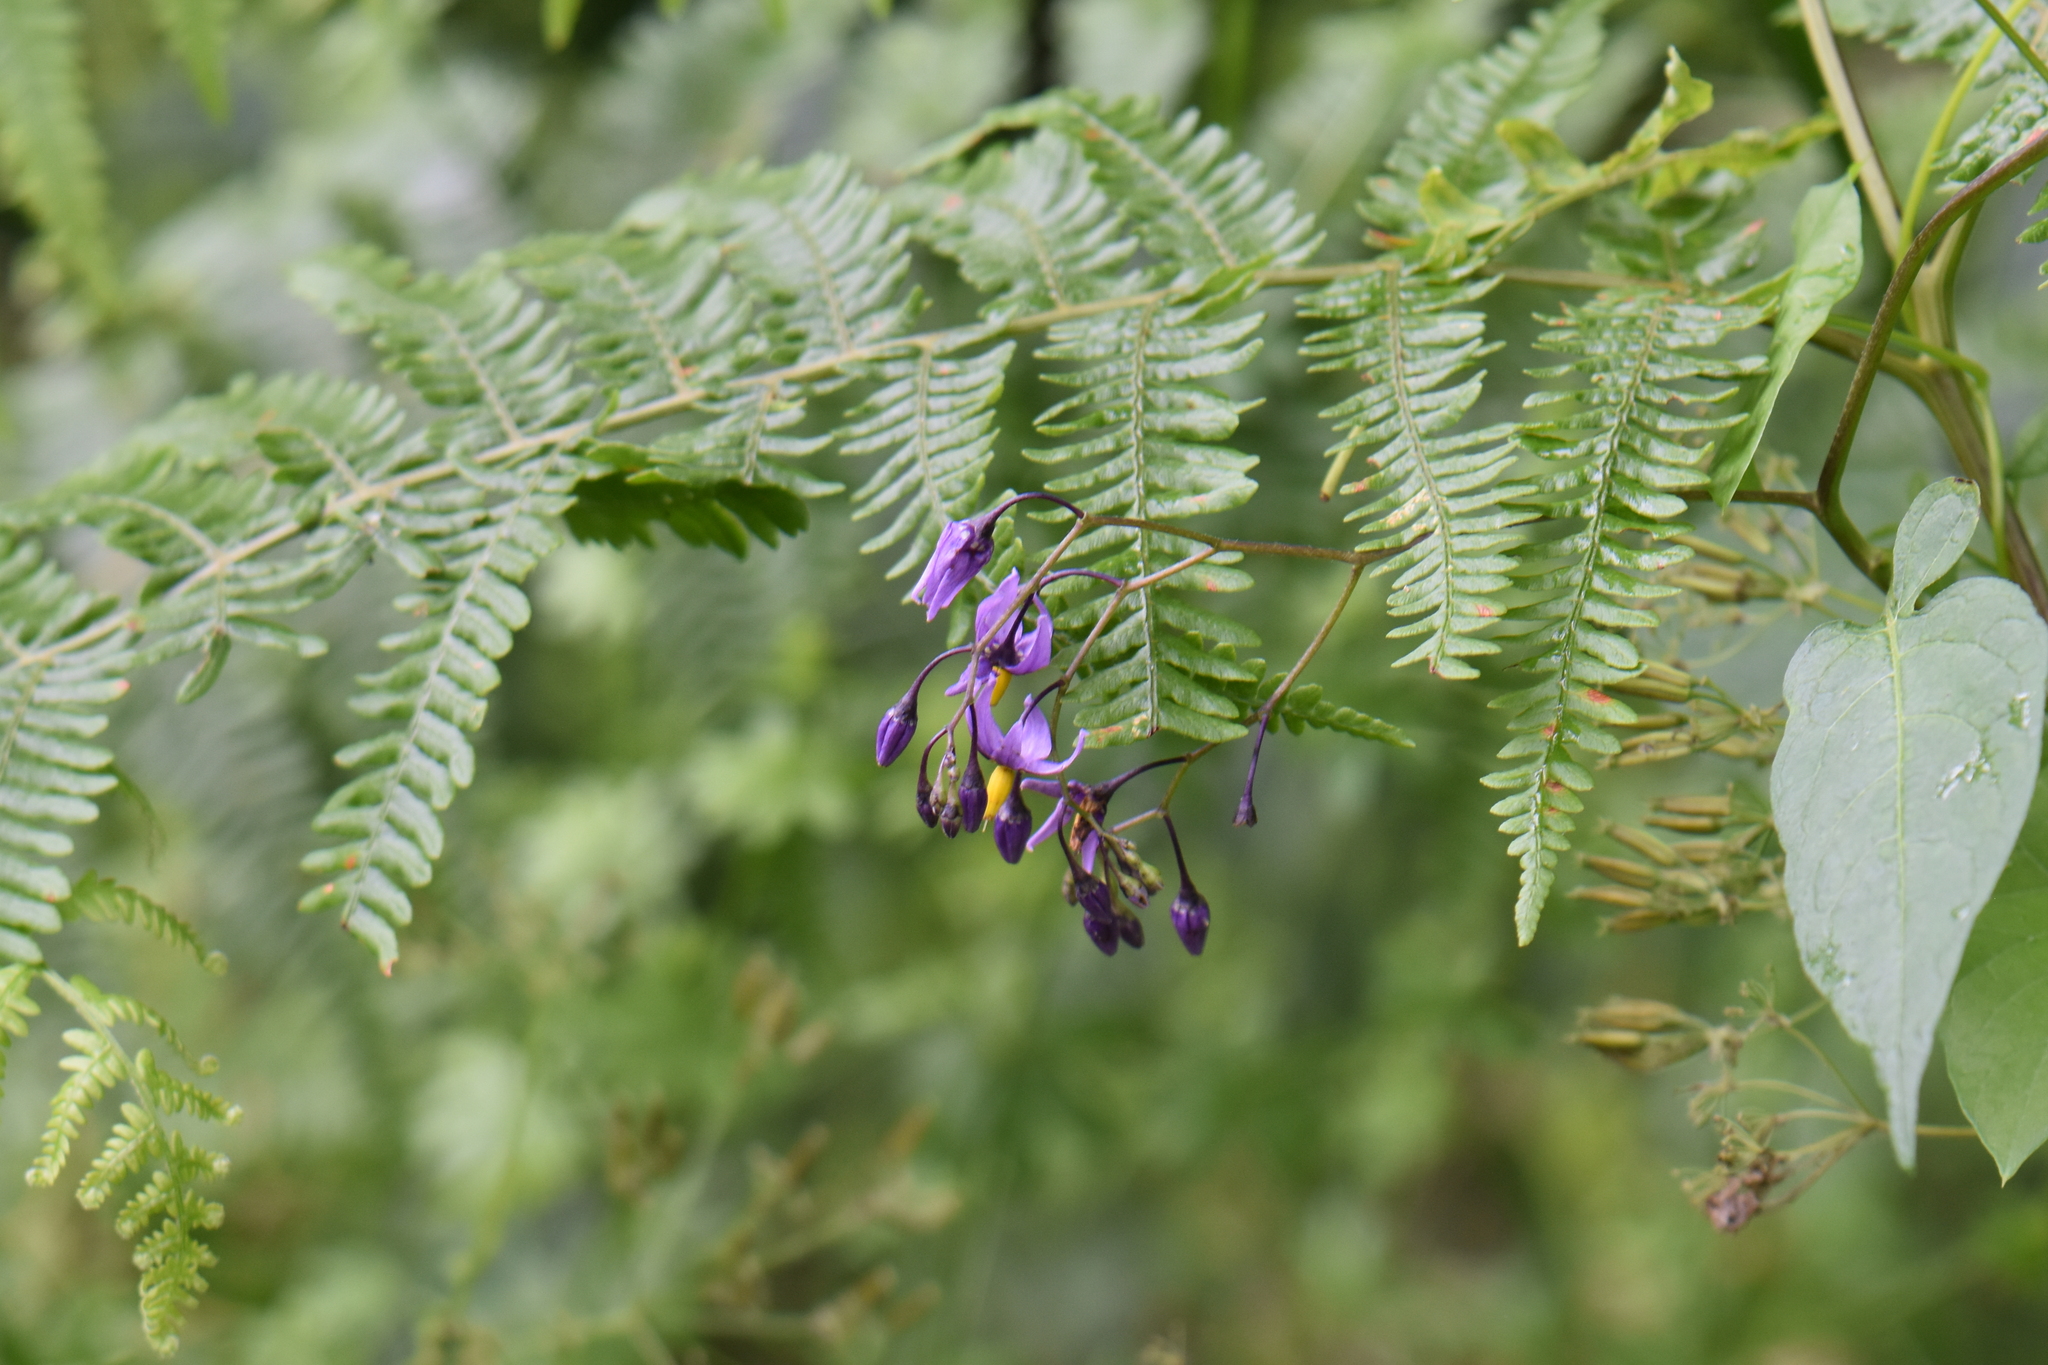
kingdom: Plantae
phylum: Tracheophyta
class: Magnoliopsida
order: Solanales
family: Solanaceae
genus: Solanum
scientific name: Solanum dulcamara
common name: Climbing nightshade
